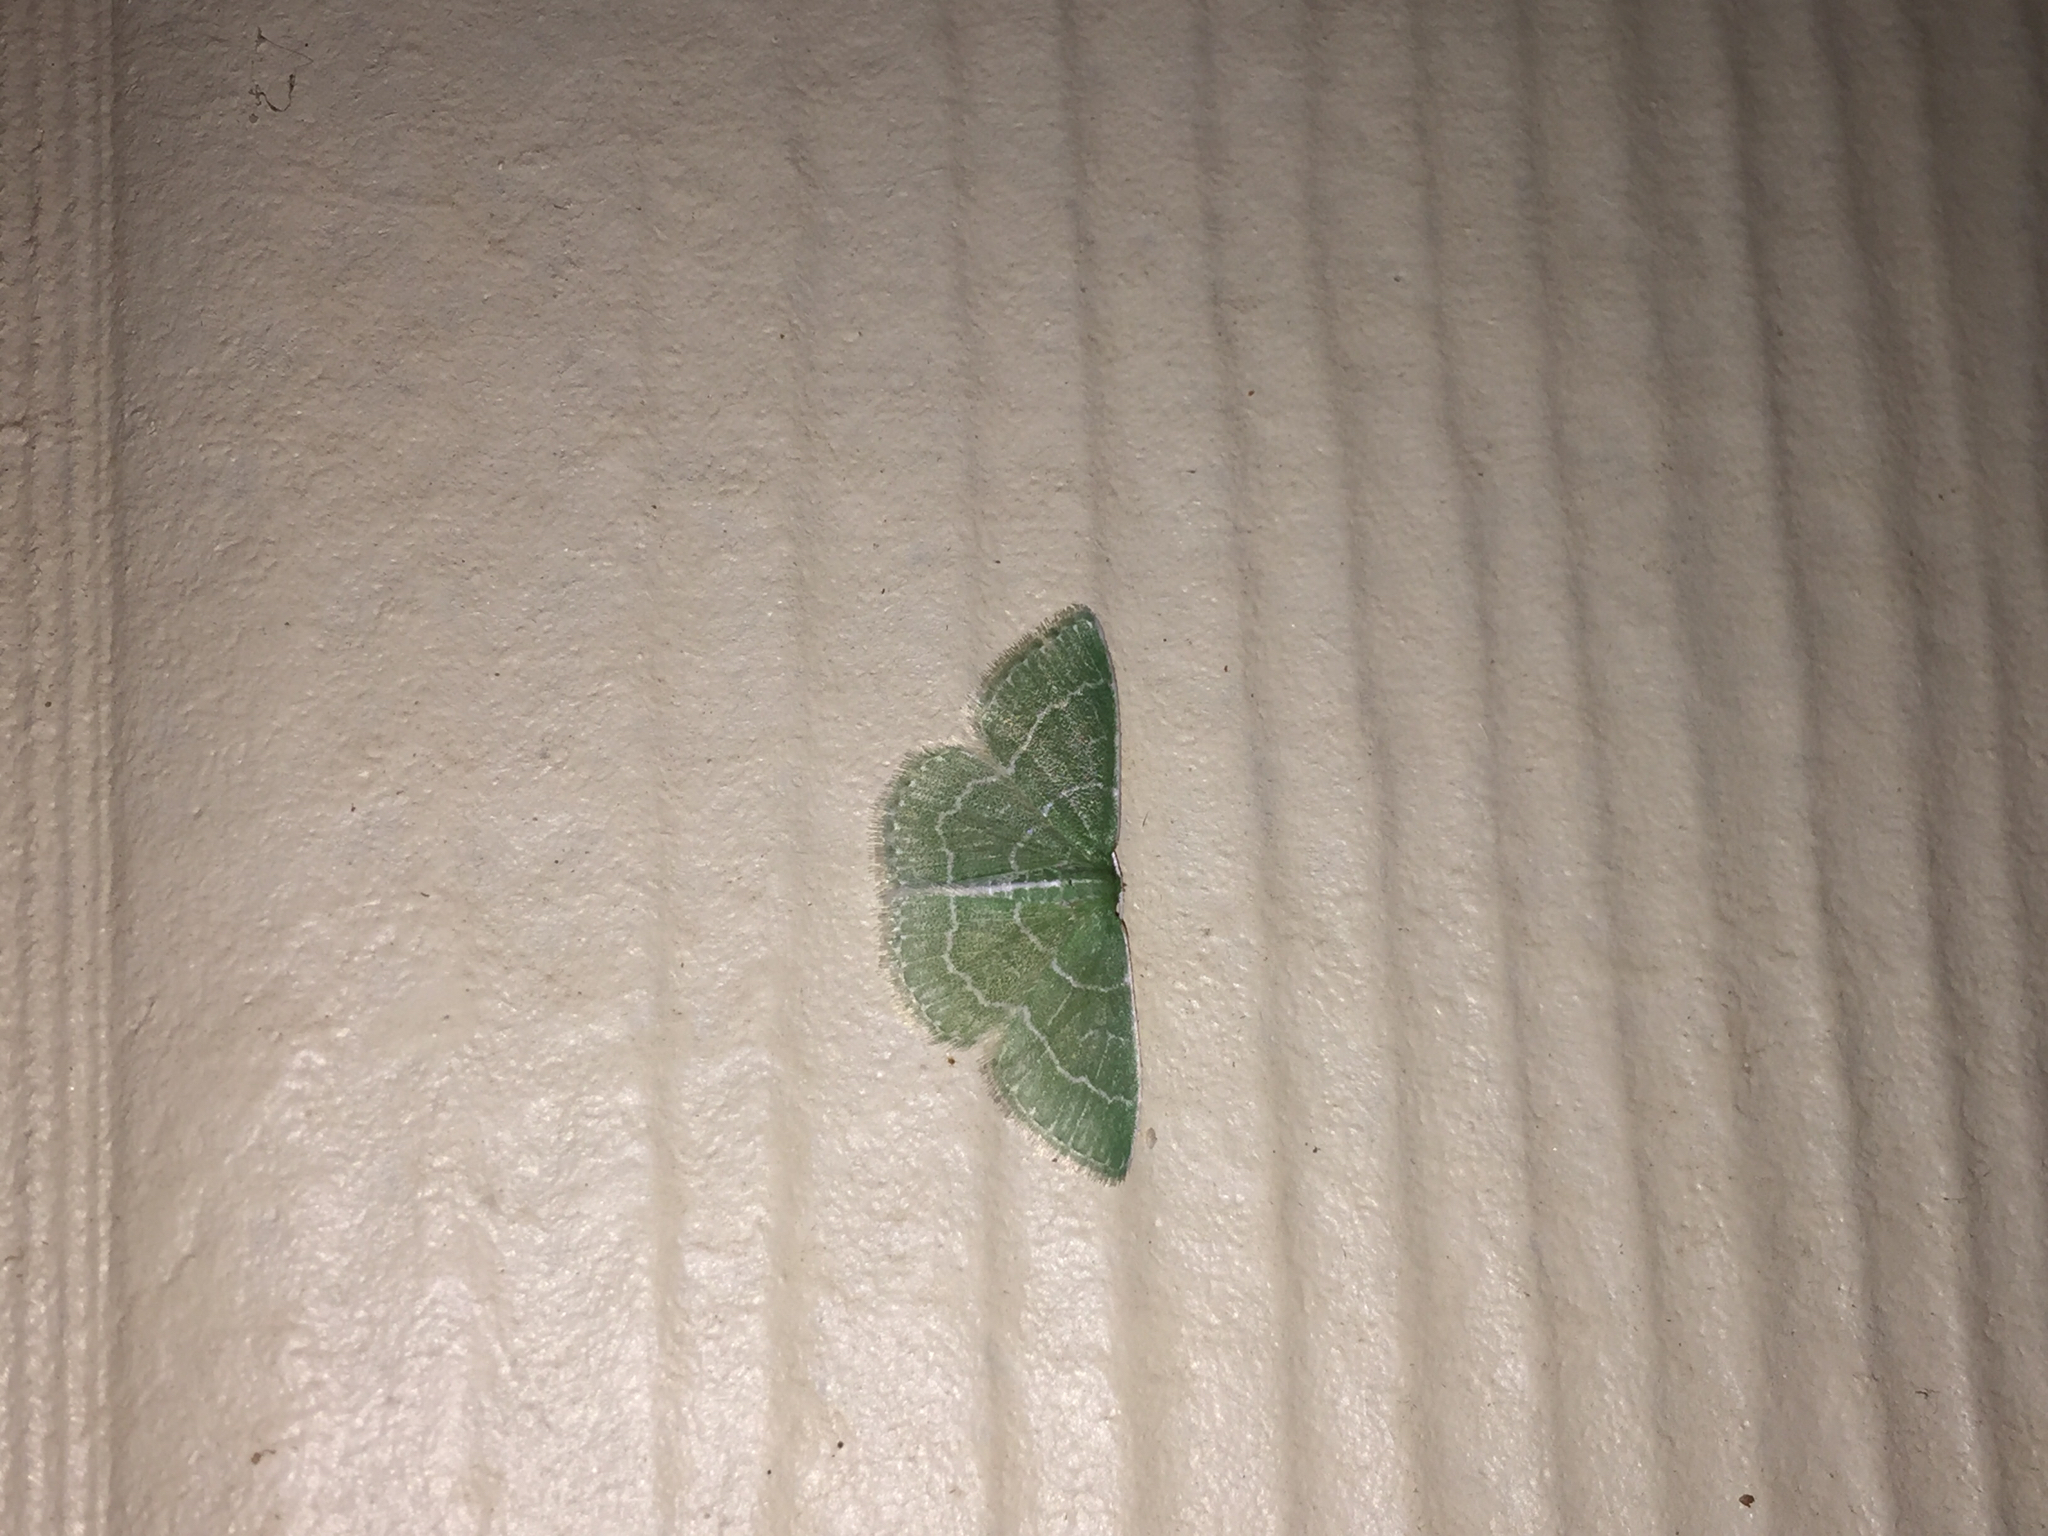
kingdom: Animalia
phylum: Arthropoda
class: Insecta
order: Lepidoptera
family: Geometridae
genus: Synchlora
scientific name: Synchlora frondaria
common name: Southern emerald
